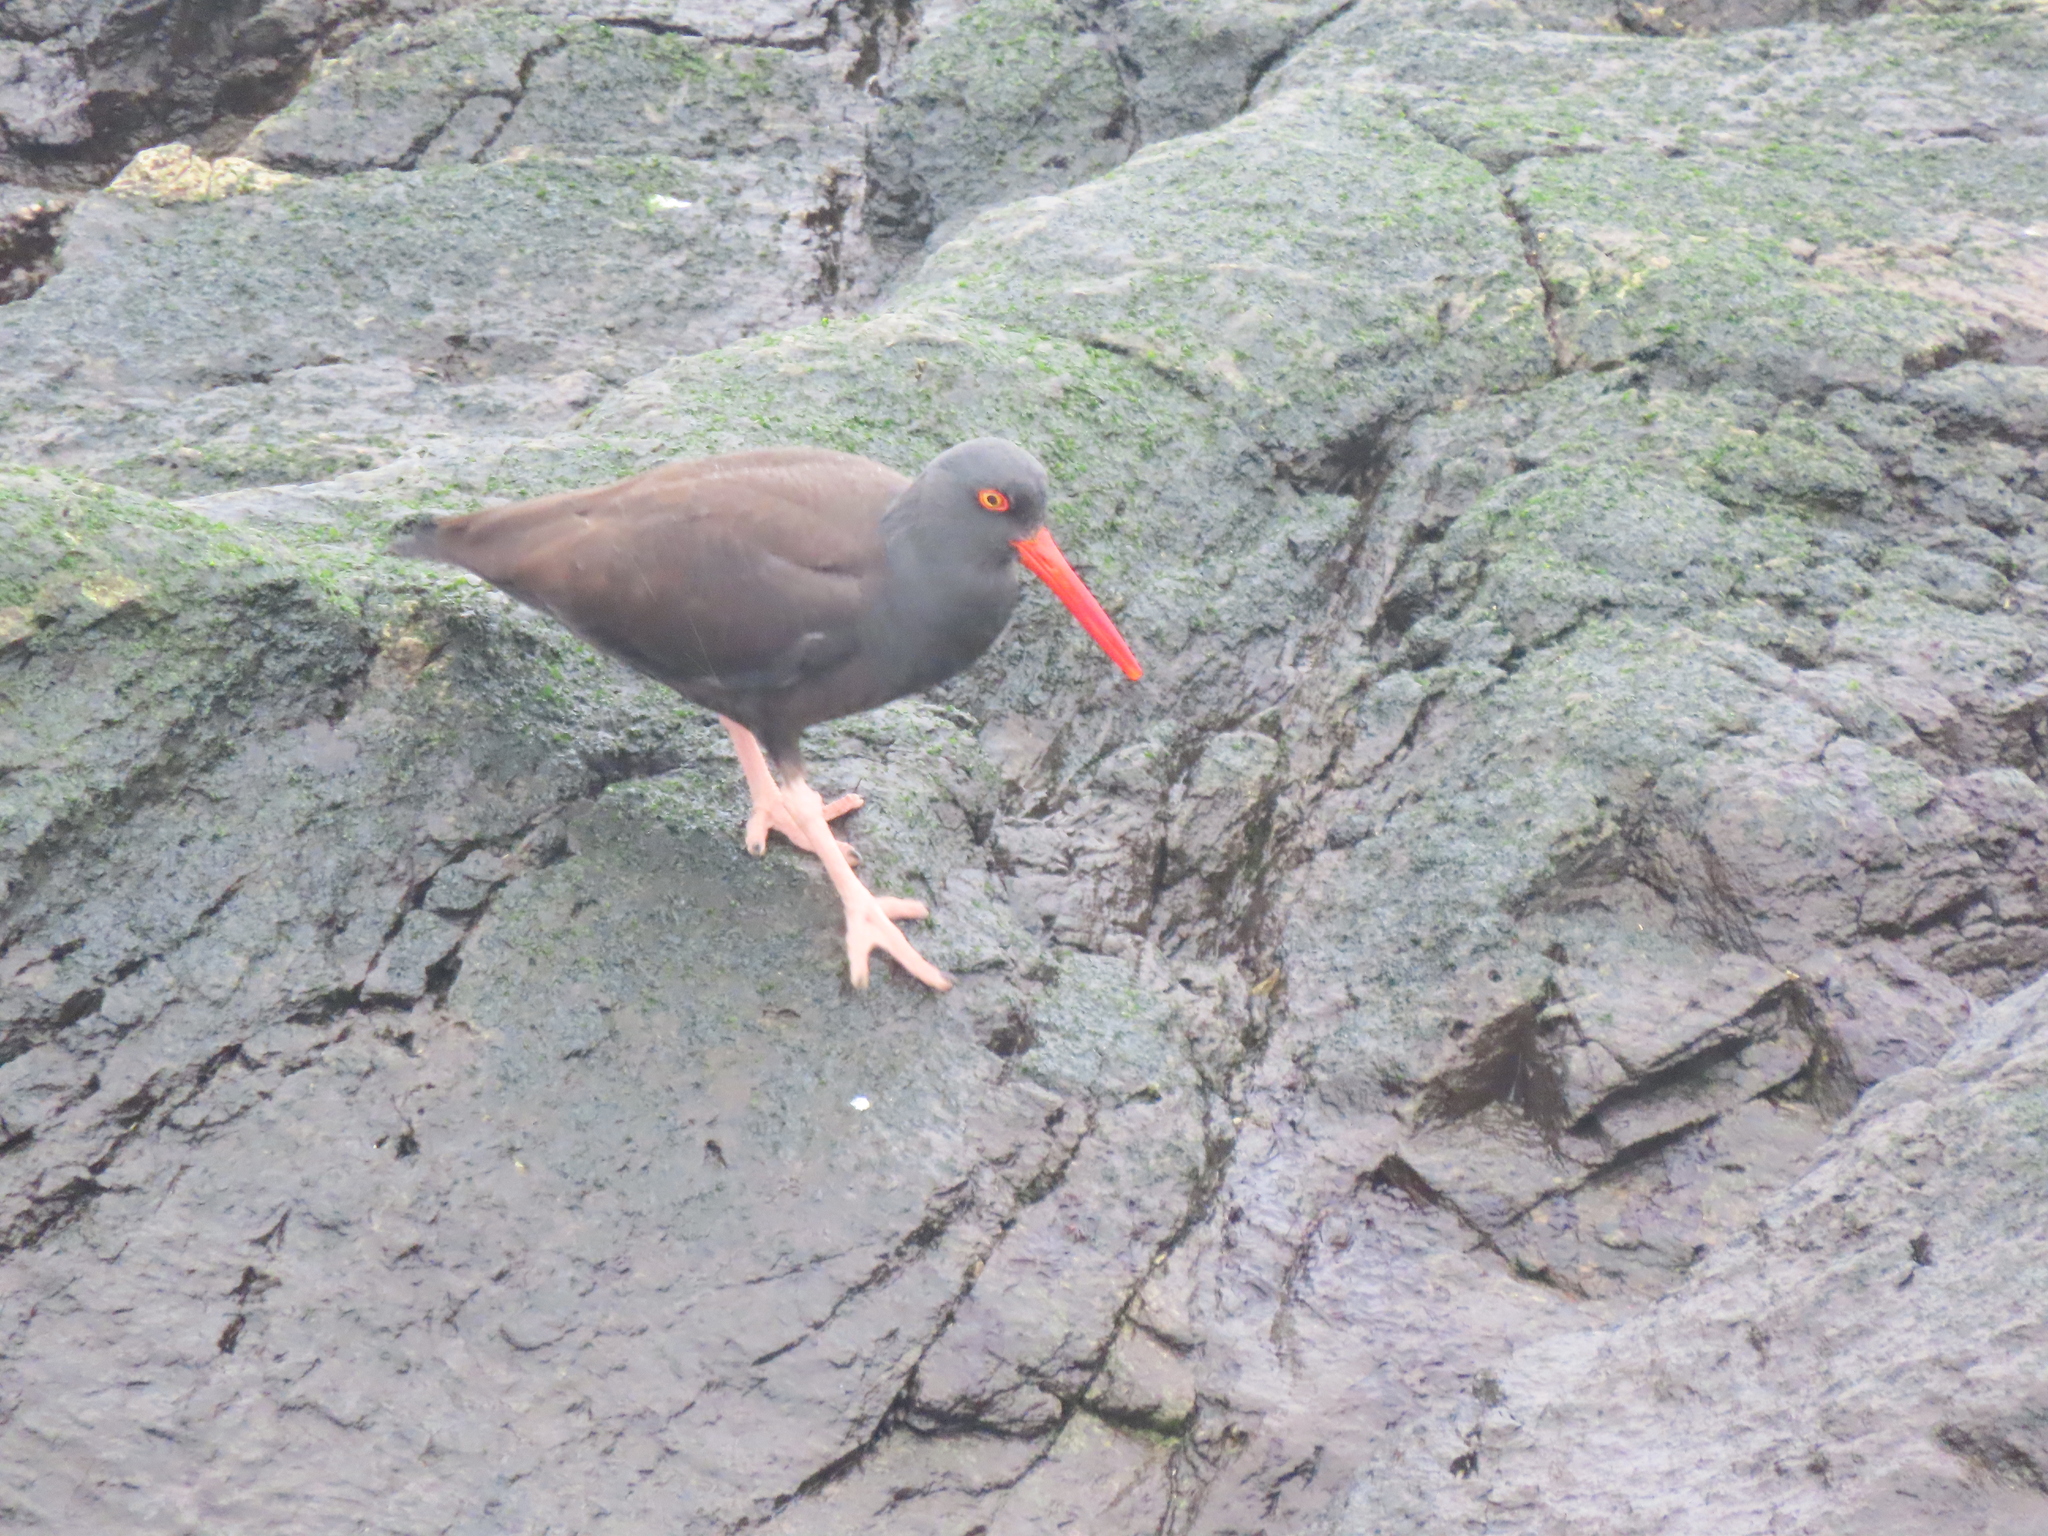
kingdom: Animalia
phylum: Chordata
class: Aves
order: Charadriiformes
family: Haematopodidae
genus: Haematopus
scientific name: Haematopus bachmani
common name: Black oystercatcher
